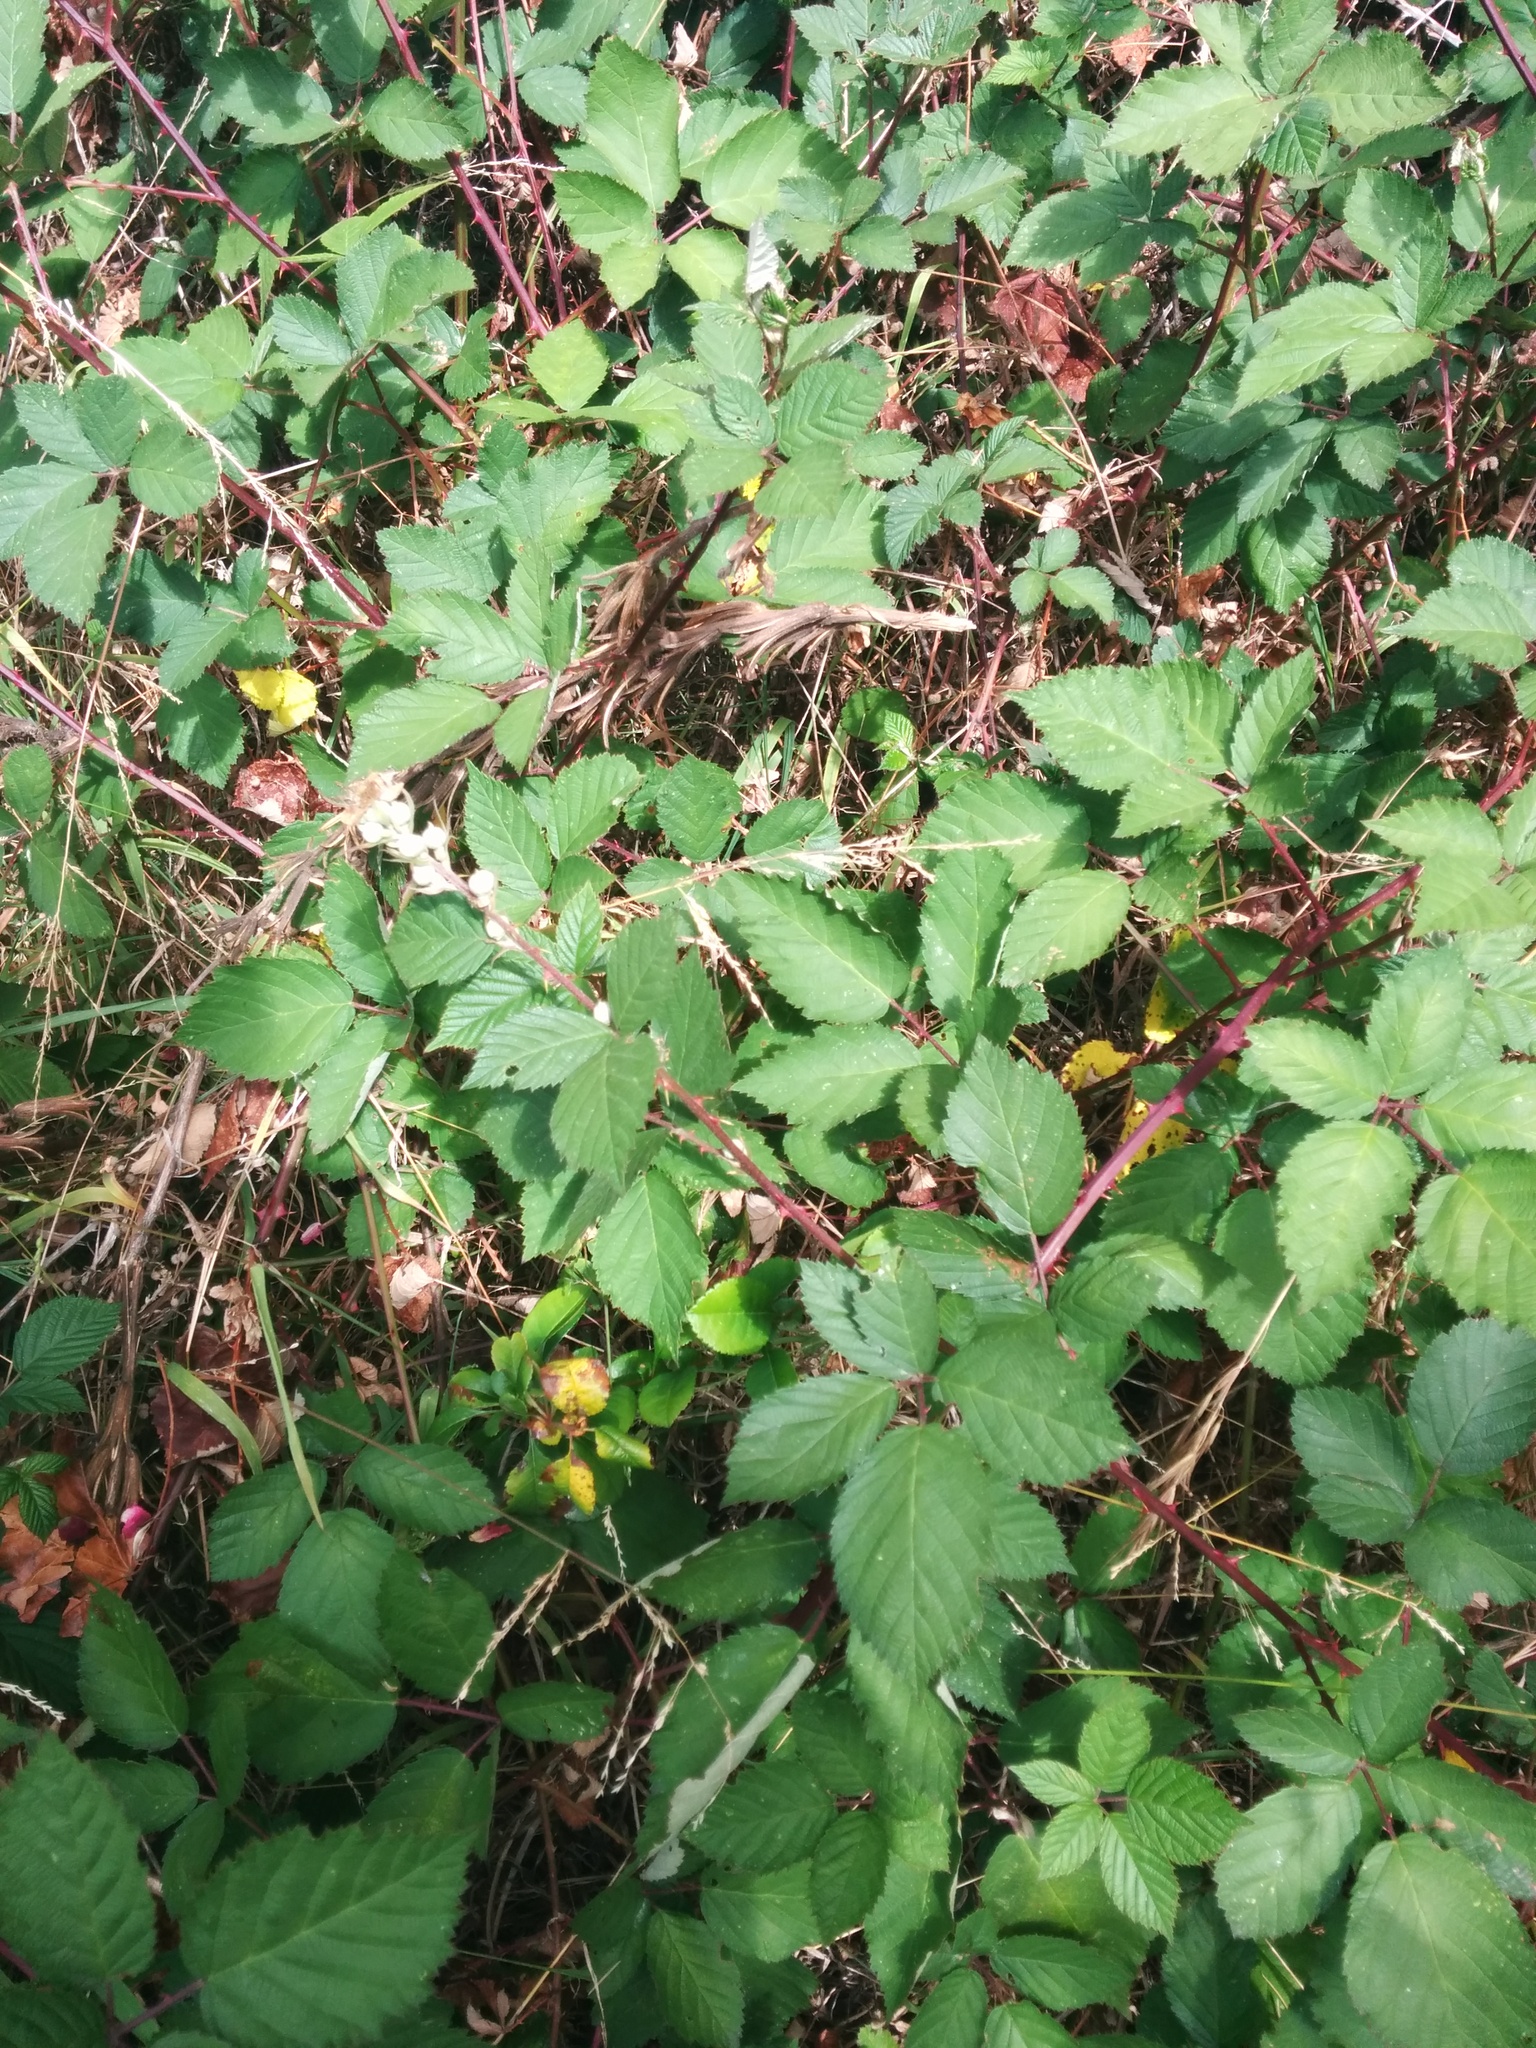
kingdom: Plantae
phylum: Tracheophyta
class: Magnoliopsida
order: Rosales
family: Rosaceae
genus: Rubus
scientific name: Rubus armeniacus
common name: Himalayan blackberry
